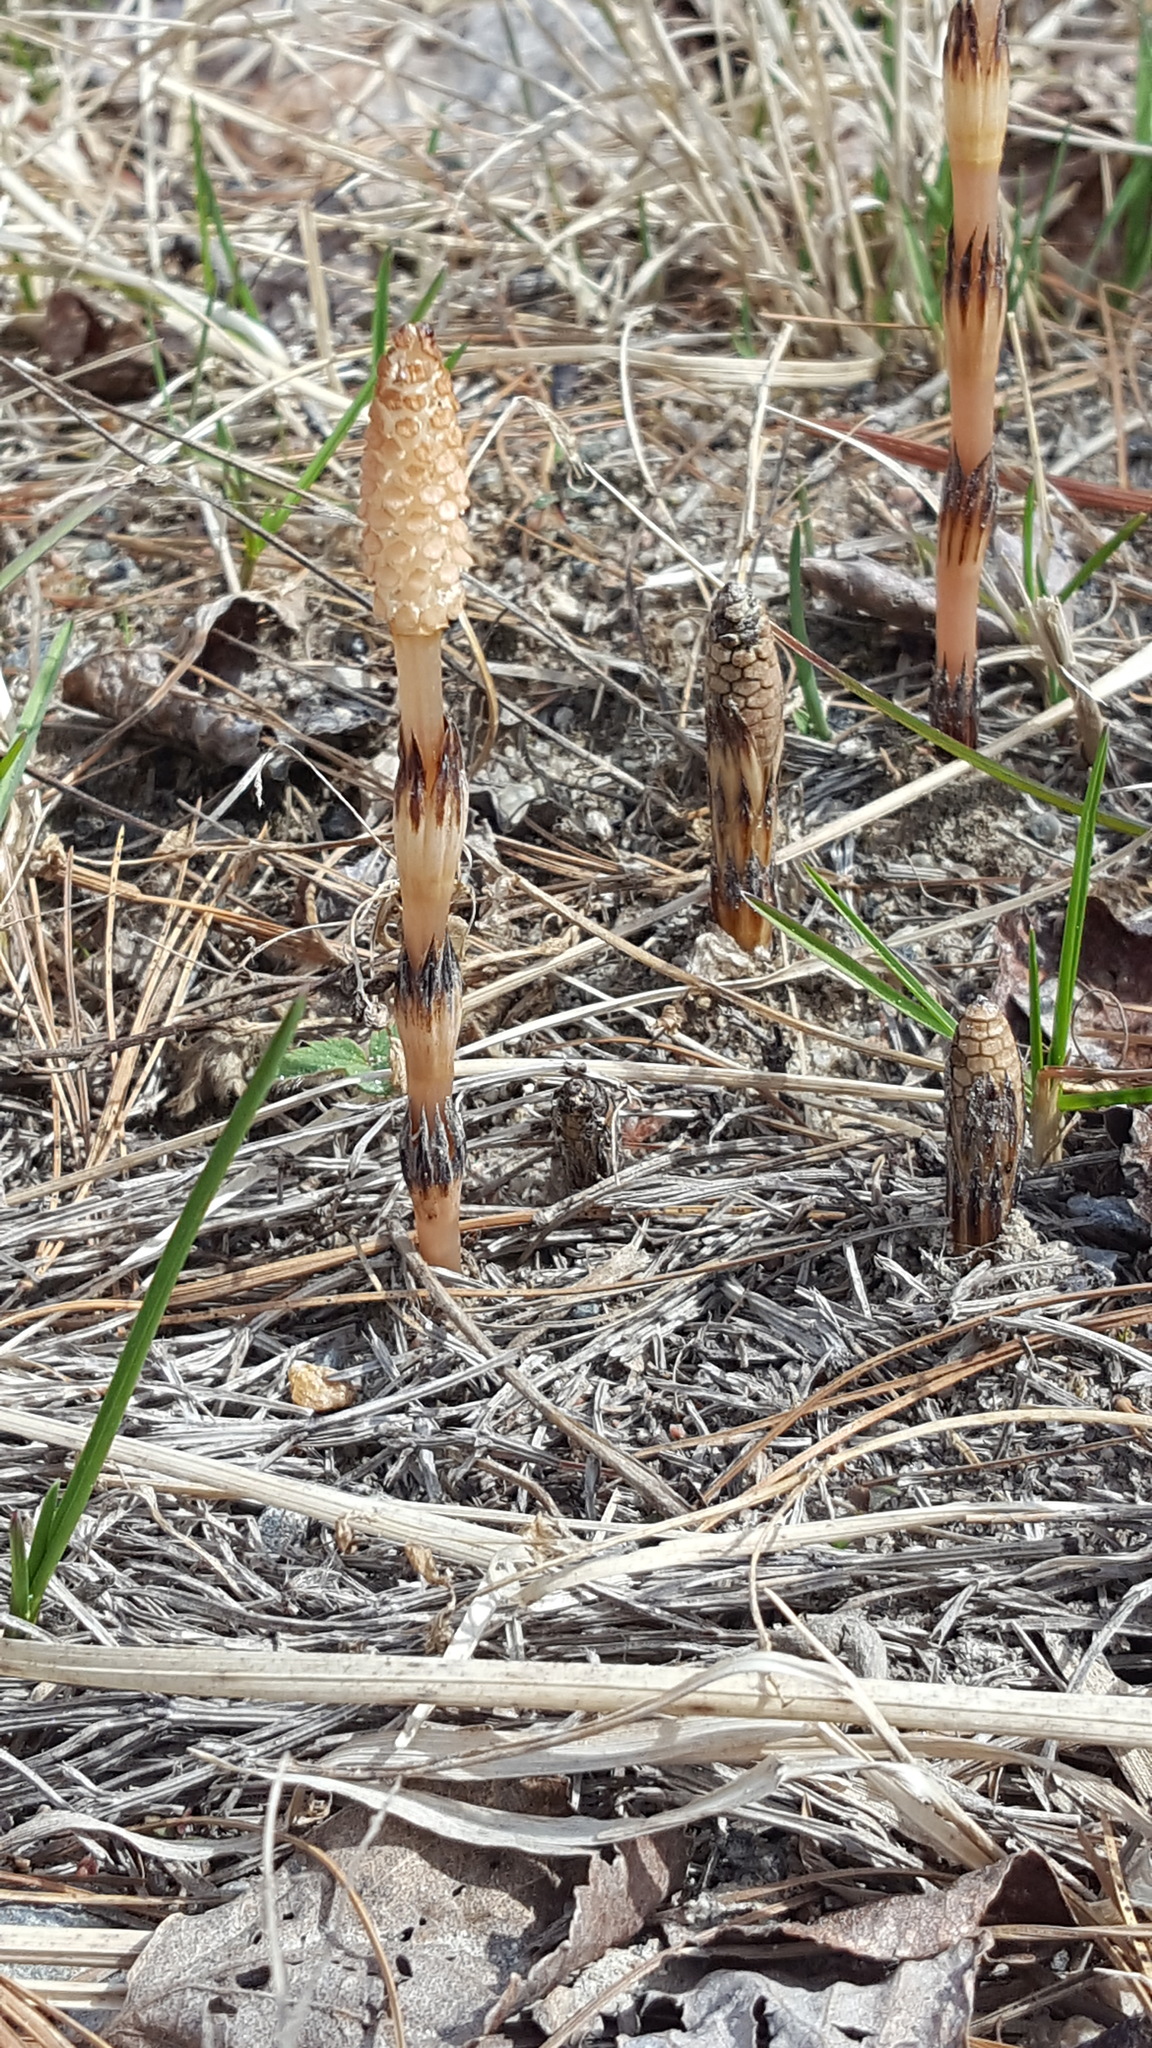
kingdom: Plantae
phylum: Tracheophyta
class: Polypodiopsida
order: Equisetales
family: Equisetaceae
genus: Equisetum
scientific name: Equisetum arvense
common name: Field horsetail
